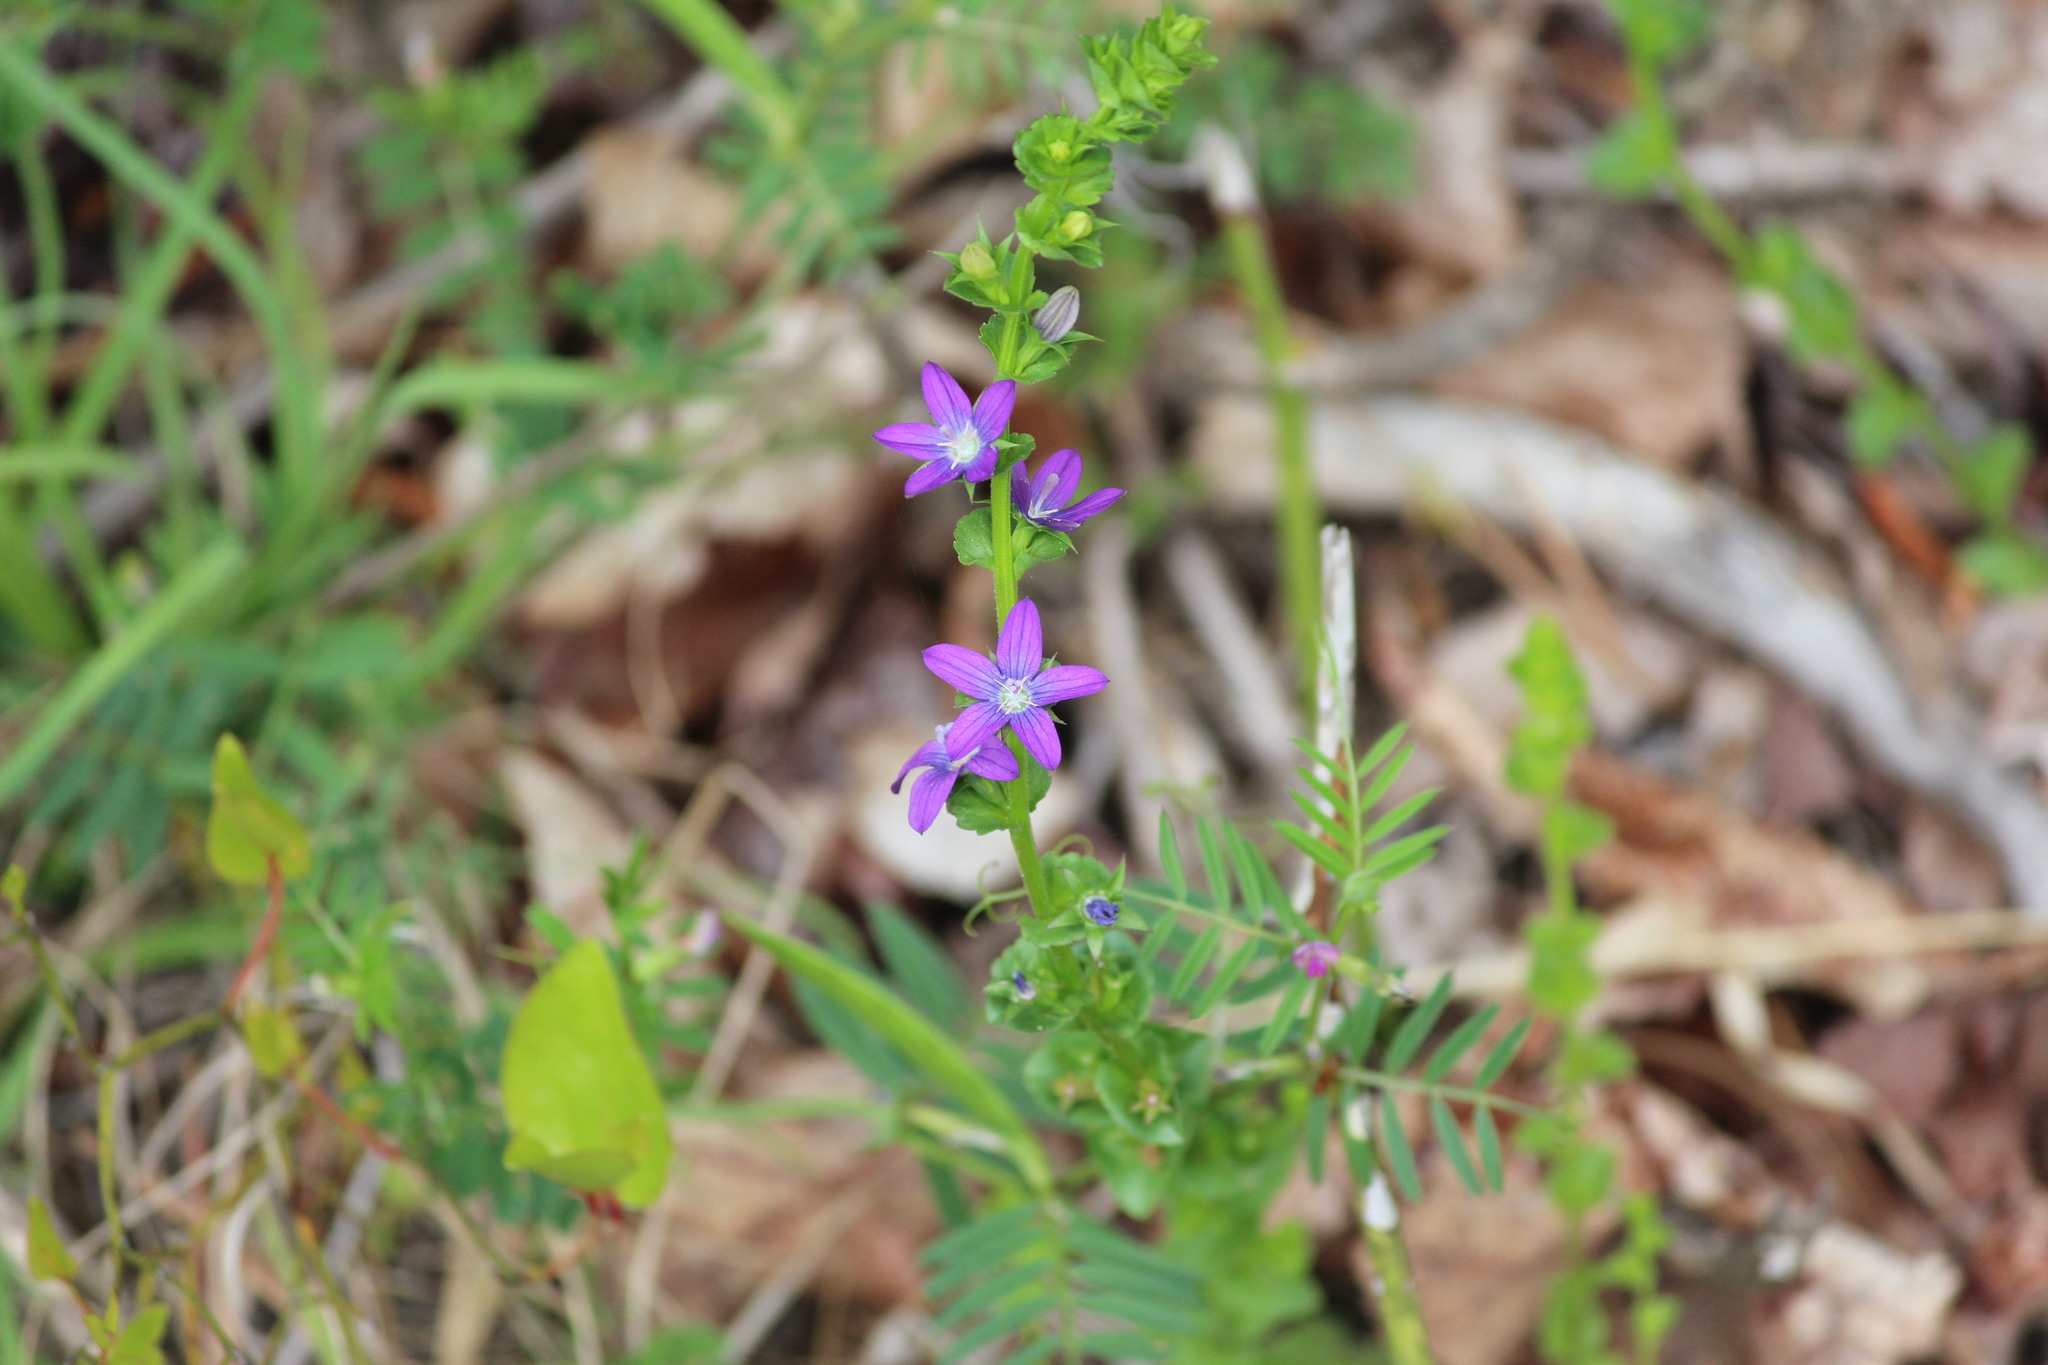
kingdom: Plantae
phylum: Tracheophyta
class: Magnoliopsida
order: Asterales
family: Campanulaceae
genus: Triodanis
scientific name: Triodanis perfoliata
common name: Clasping venus' looking-glass
